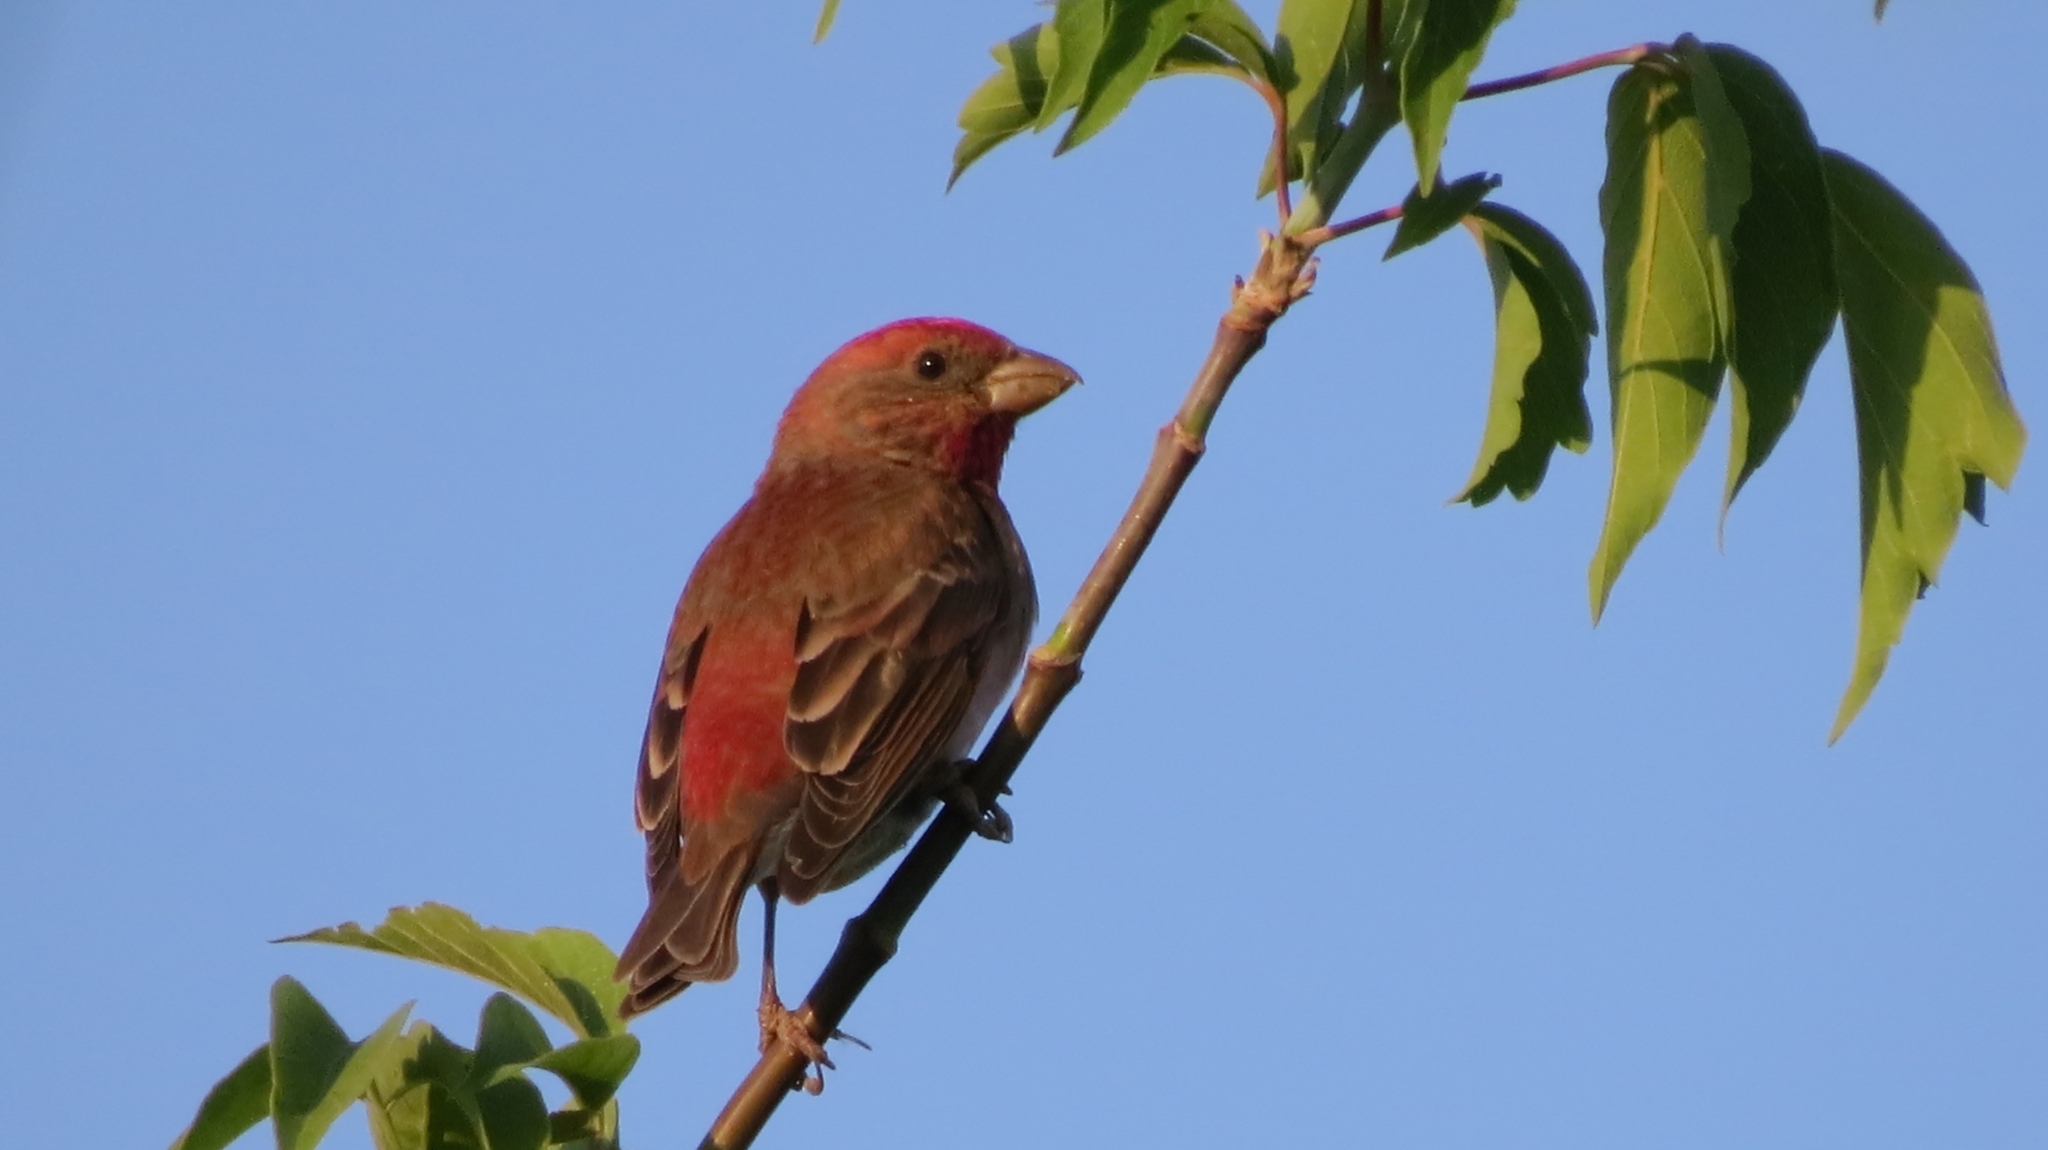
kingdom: Animalia
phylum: Chordata
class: Aves
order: Passeriformes
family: Fringillidae
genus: Carpodacus
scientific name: Carpodacus erythrinus
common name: Common rosefinch
